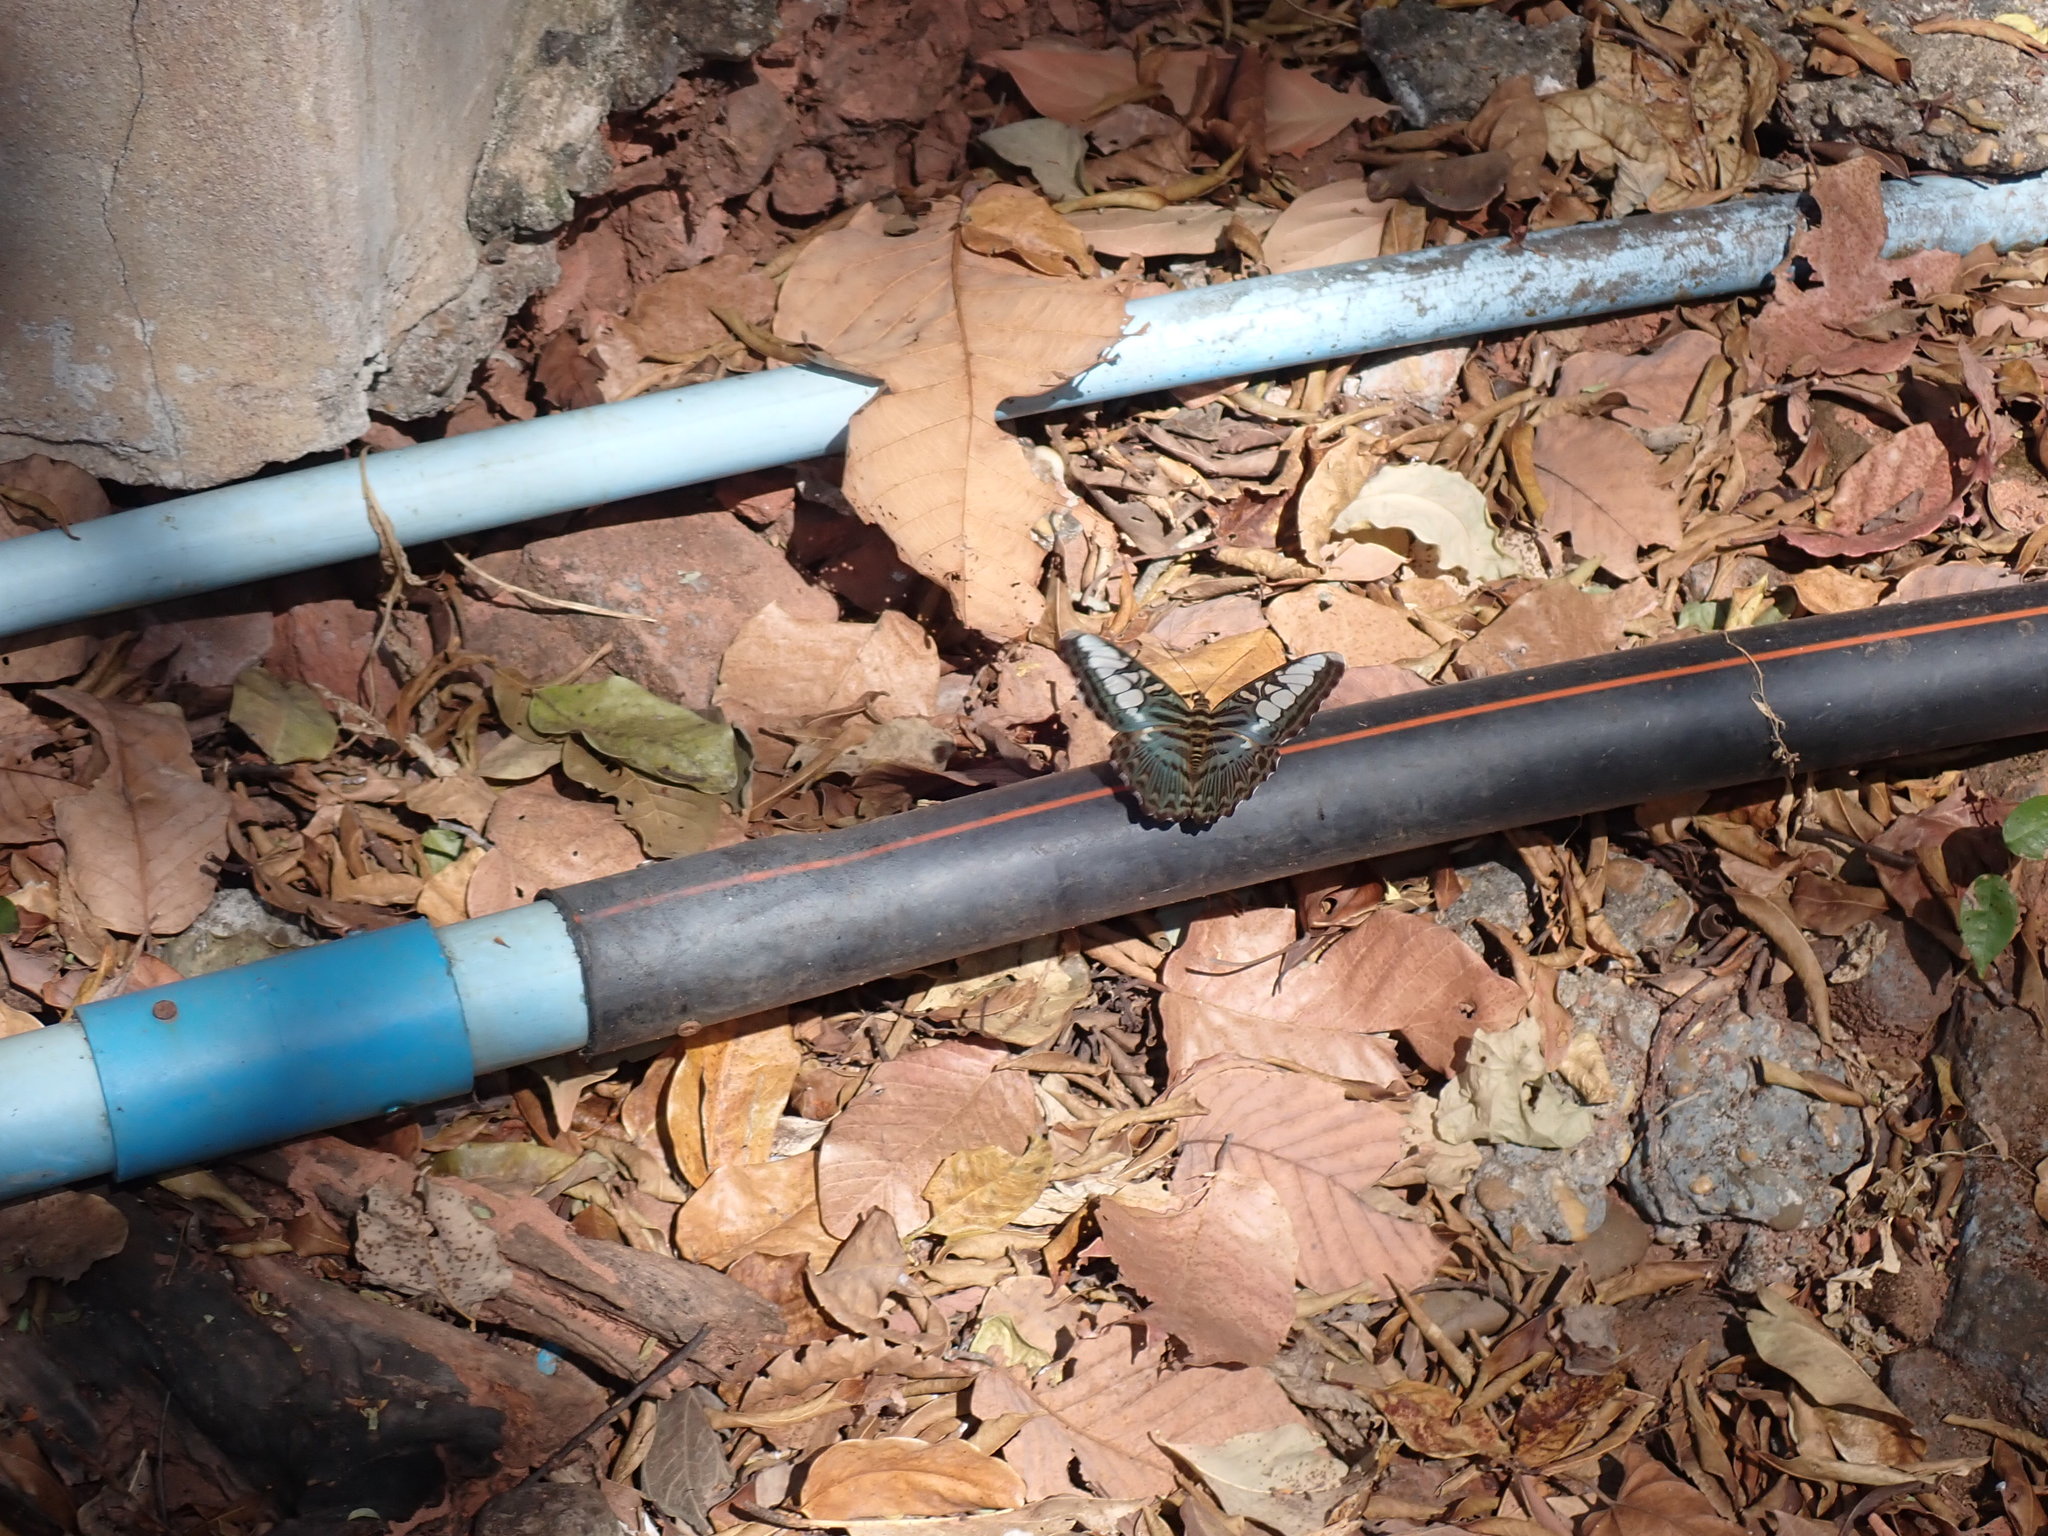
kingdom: Animalia
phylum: Arthropoda
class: Insecta
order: Lepidoptera
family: Nymphalidae
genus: Kallima
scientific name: Kallima sylvia
